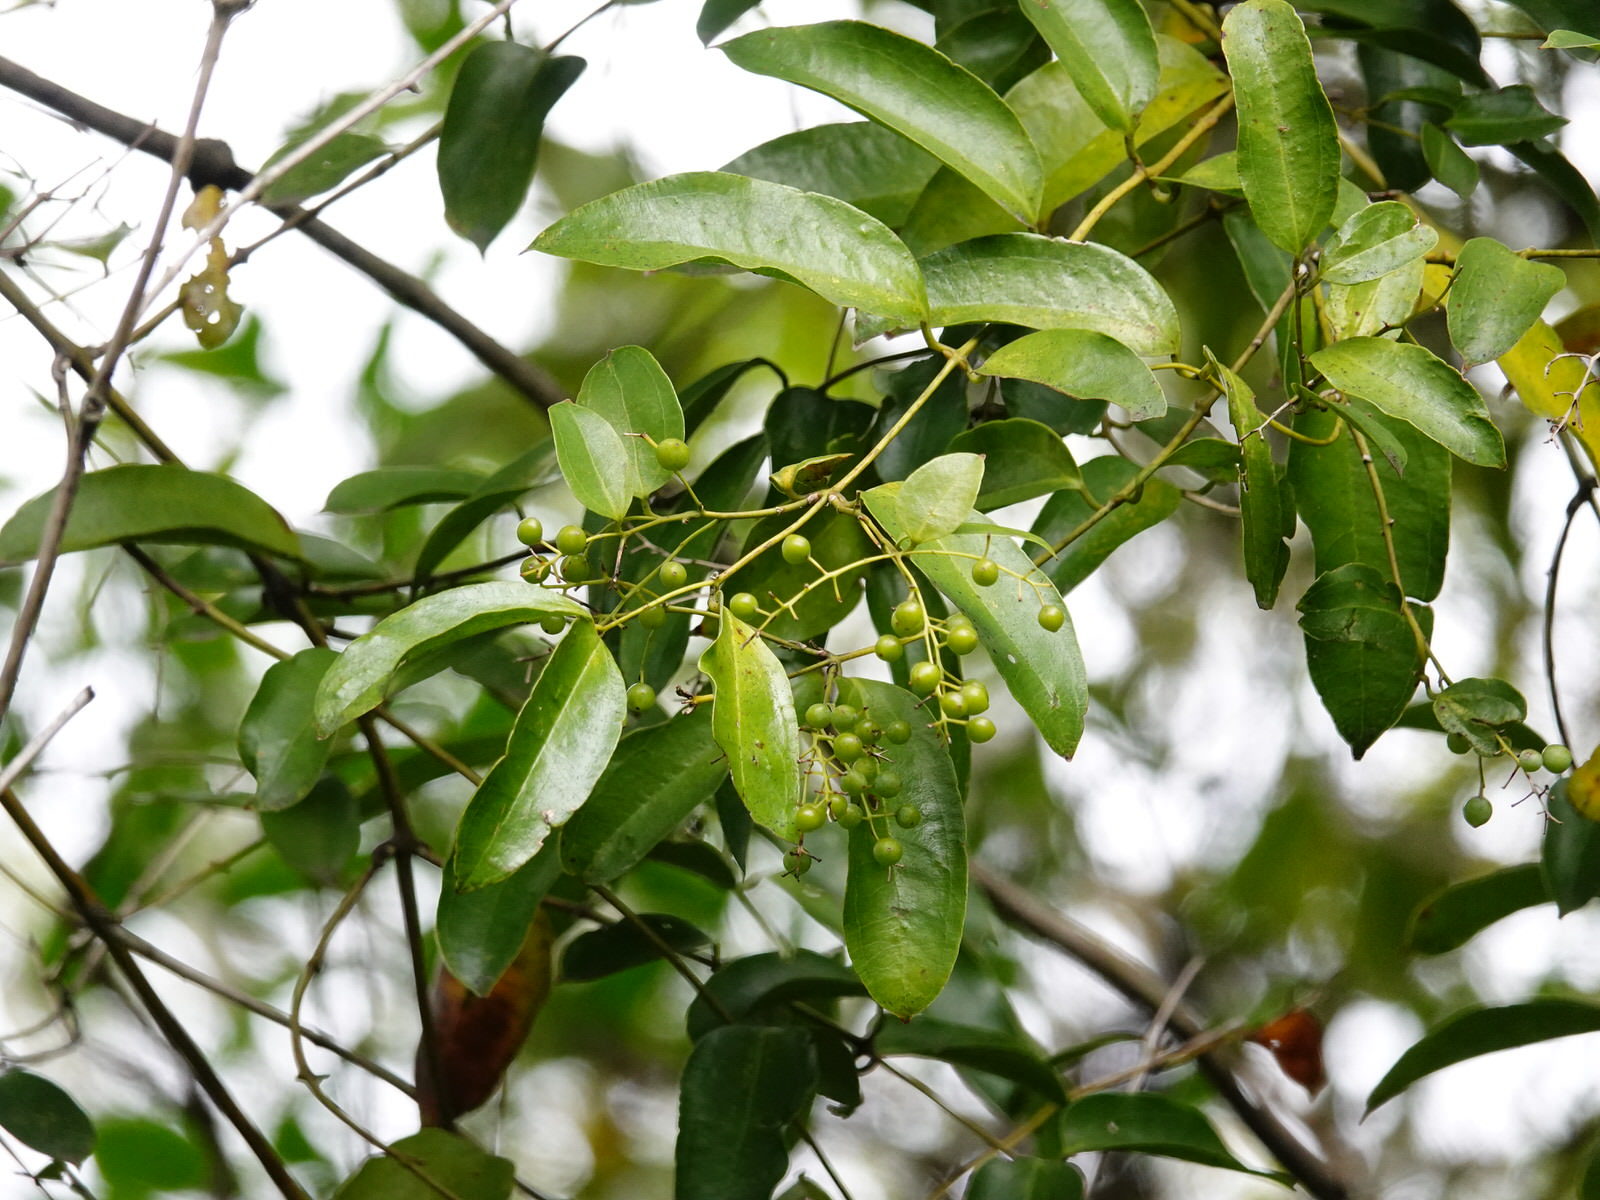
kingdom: Plantae
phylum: Tracheophyta
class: Liliopsida
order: Liliales
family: Ripogonaceae
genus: Ripogonum
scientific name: Ripogonum scandens
